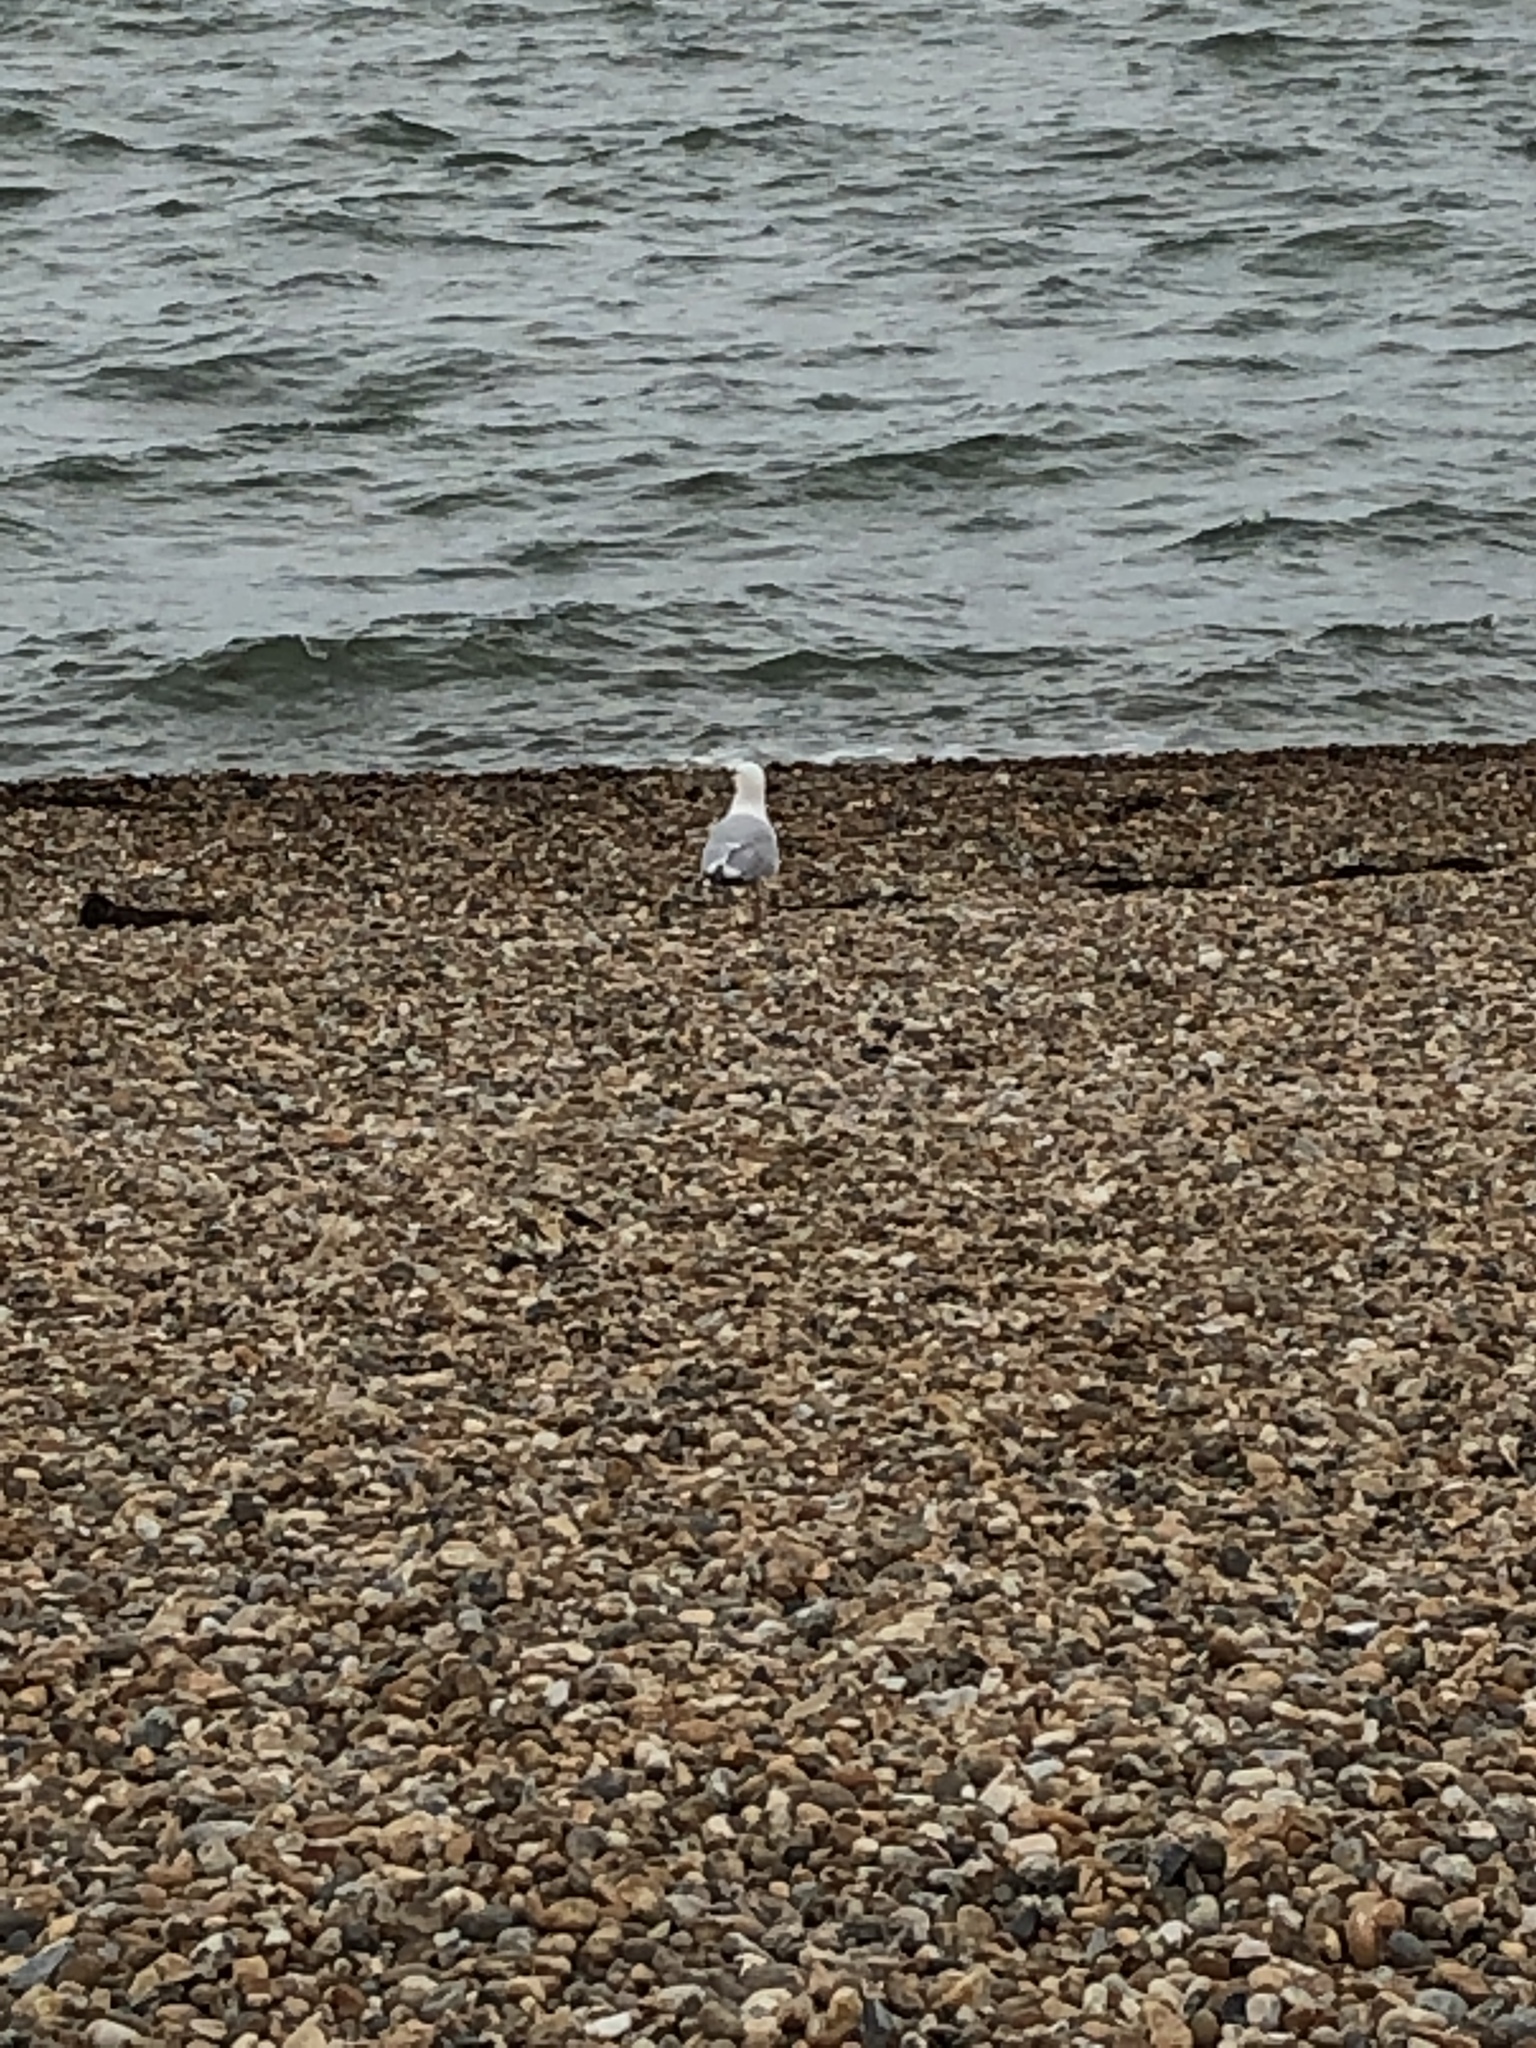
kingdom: Animalia
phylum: Chordata
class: Aves
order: Charadriiformes
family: Laridae
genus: Larus
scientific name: Larus argentatus
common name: Herring gull
